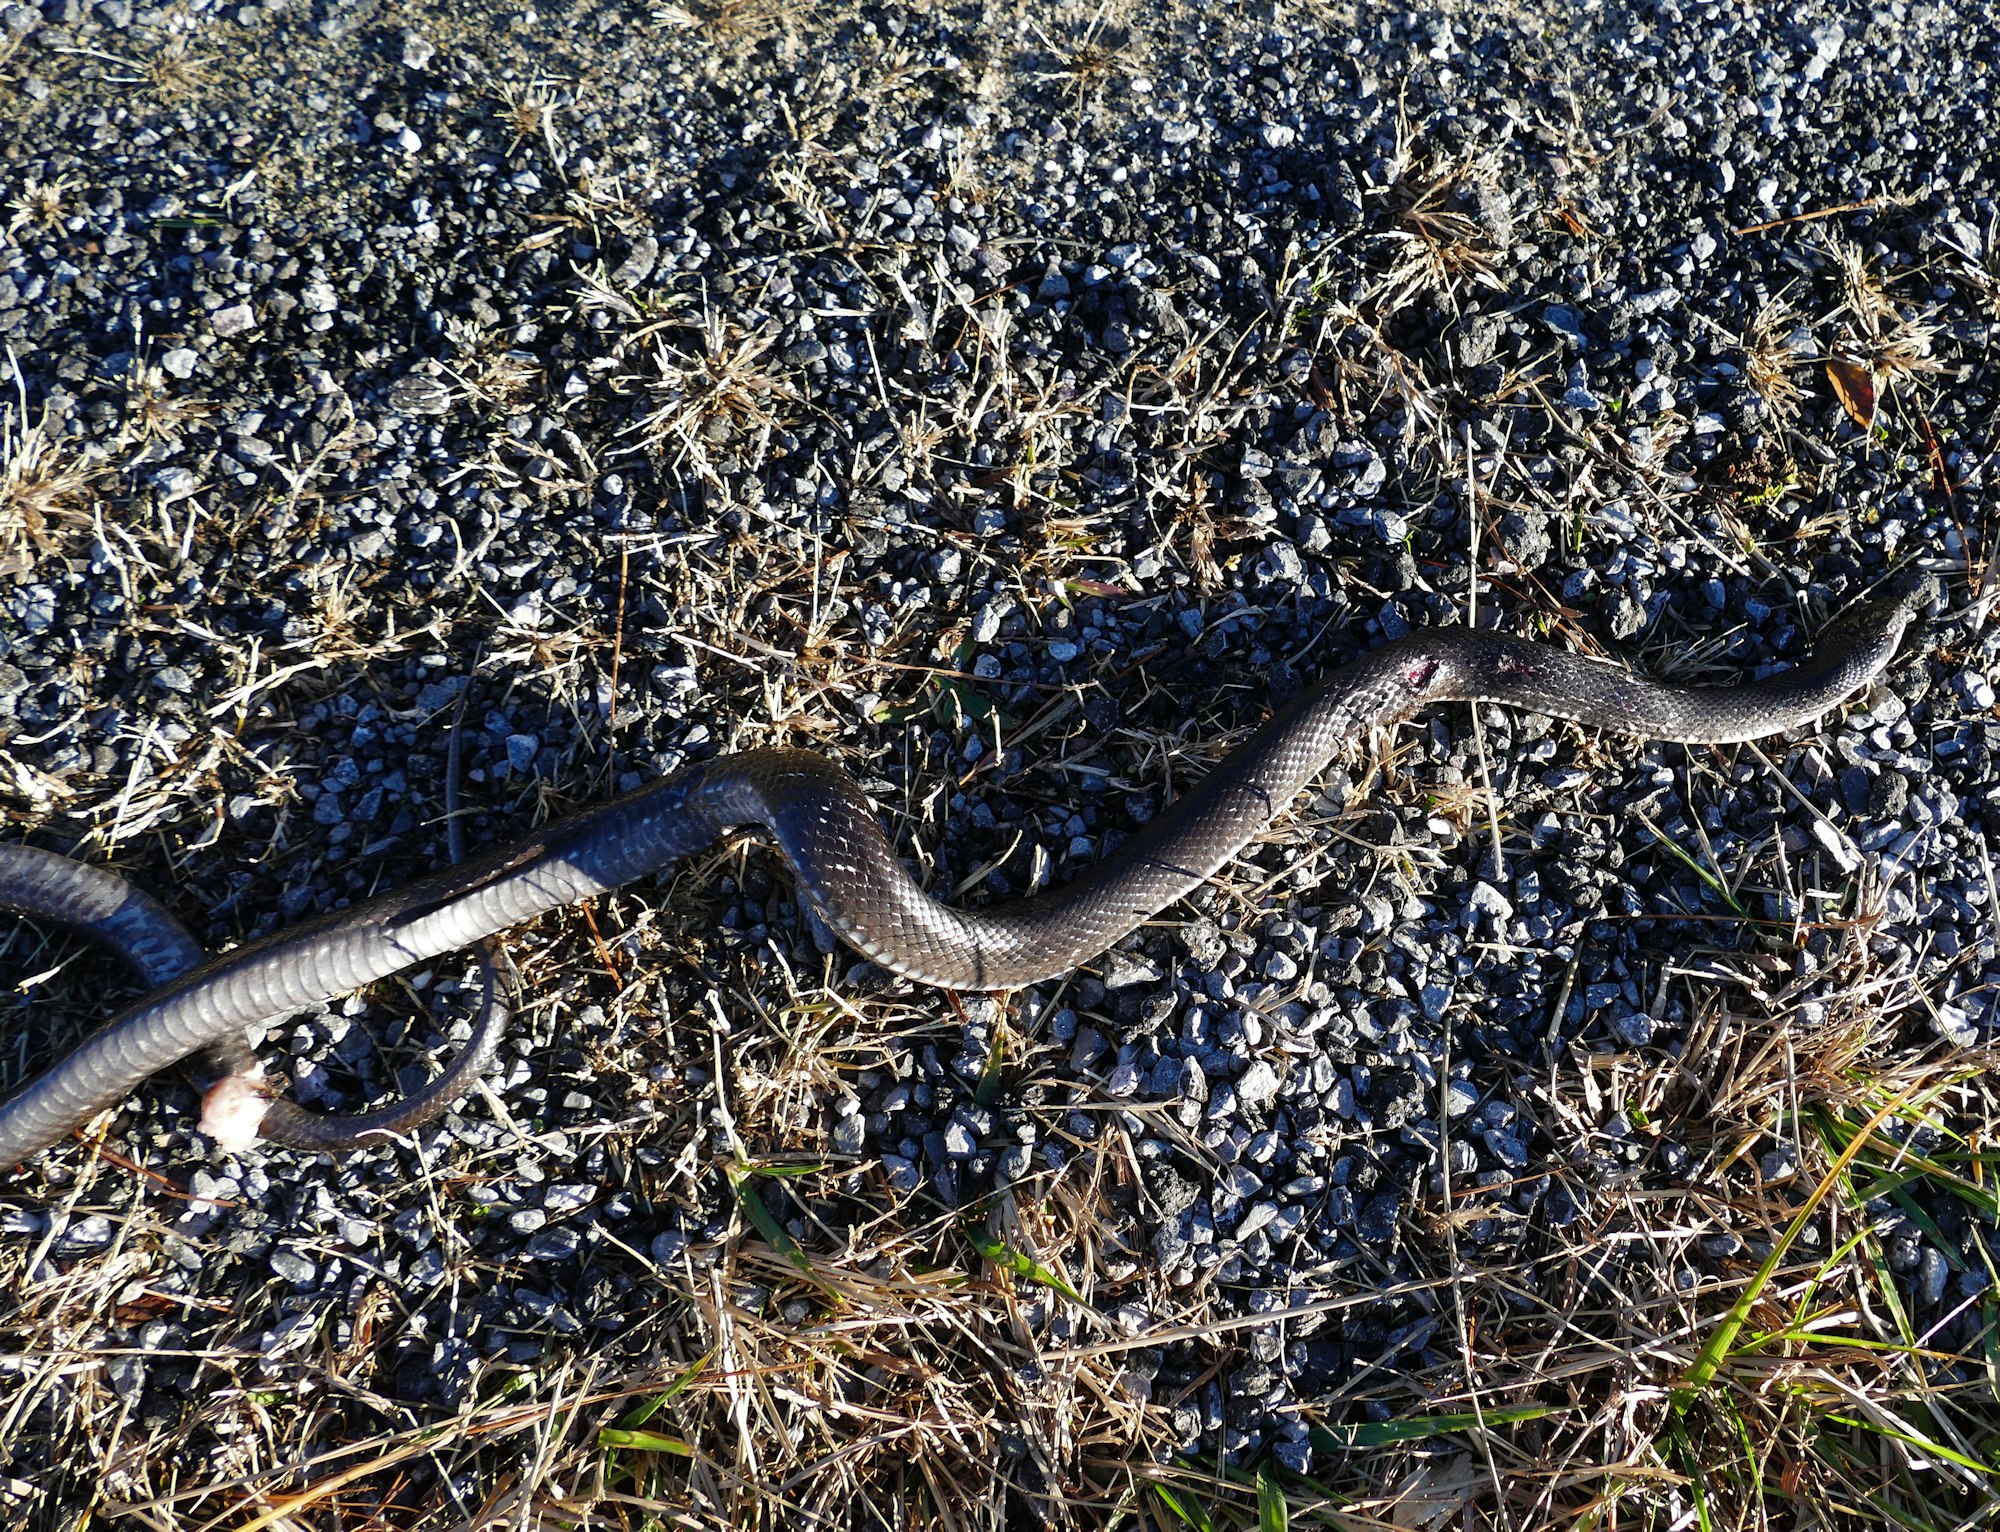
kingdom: Animalia
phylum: Chordata
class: Squamata
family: Colubridae
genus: Pantherophis
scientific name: Pantherophis alleghaniensis
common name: Eastern rat snake
